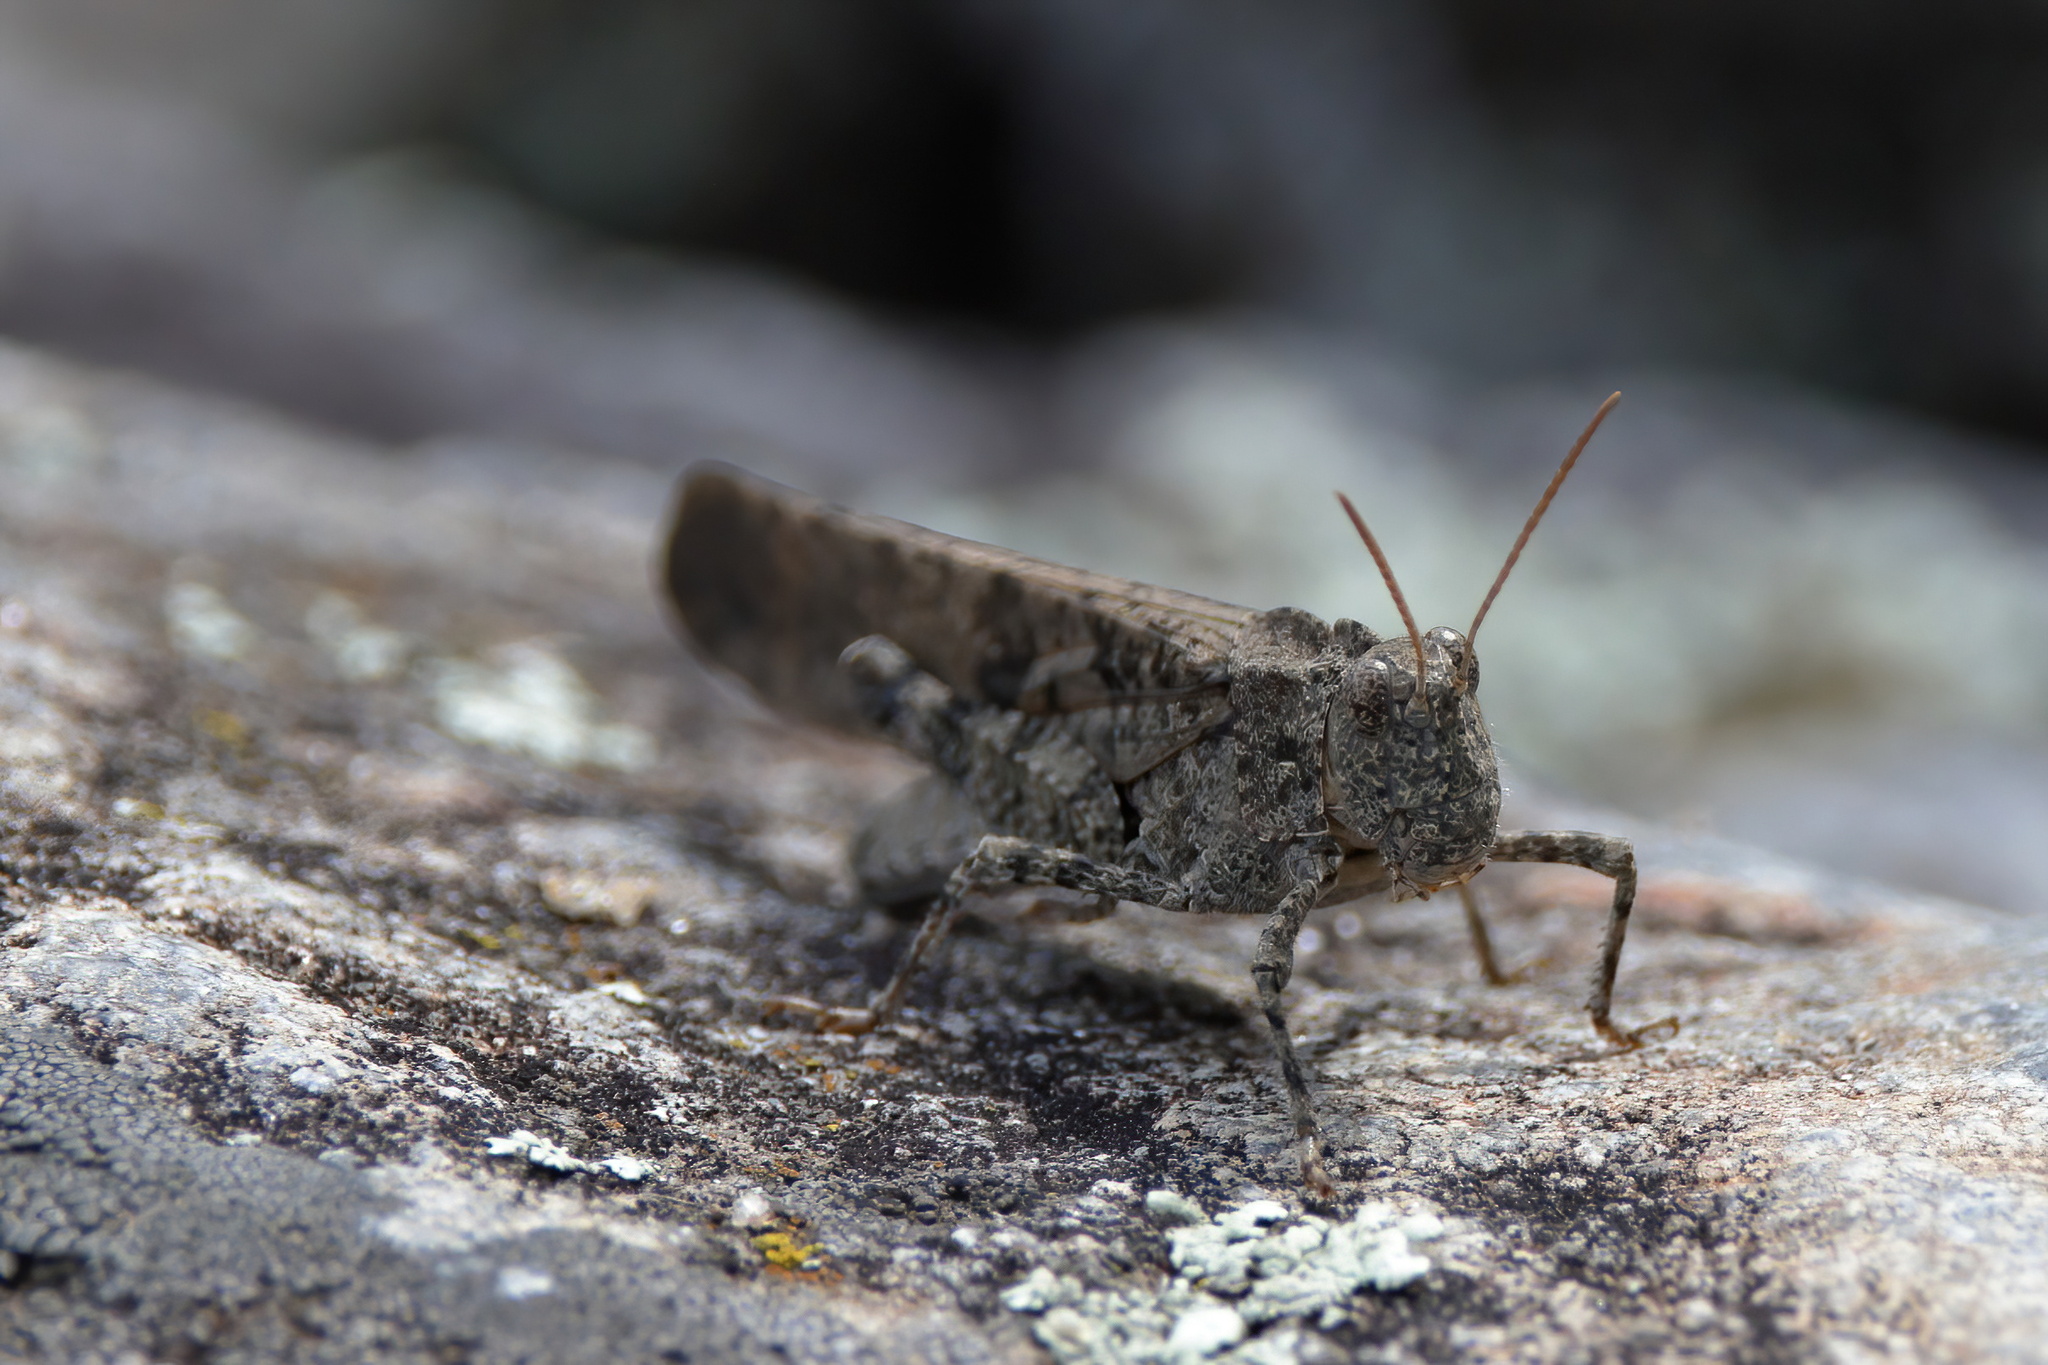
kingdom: Animalia
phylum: Arthropoda
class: Insecta
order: Orthoptera
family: Acrididae
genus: Dissosteira
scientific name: Dissosteira carolina
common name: Carolina grasshopper
